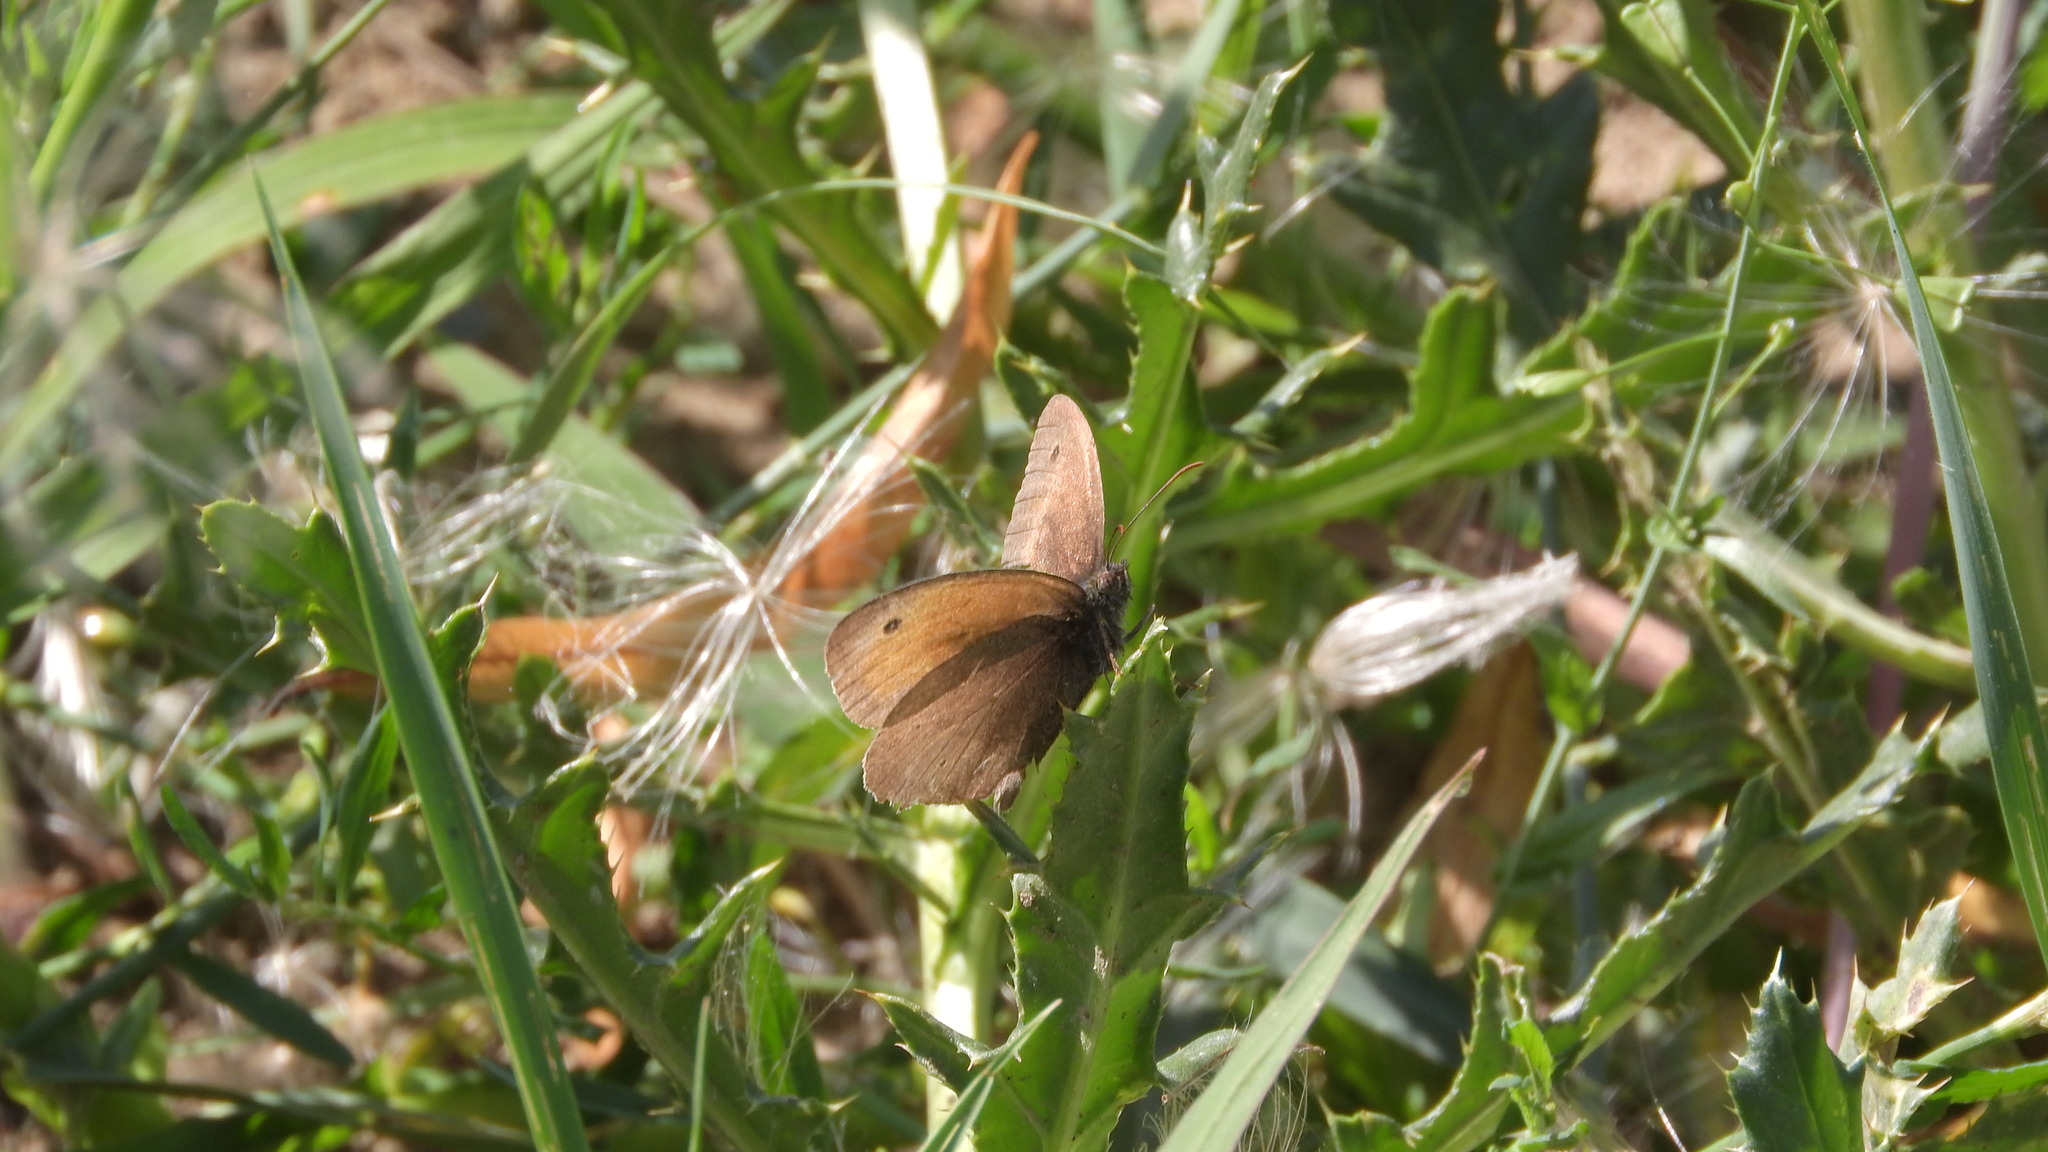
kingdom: Animalia
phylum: Arthropoda
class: Insecta
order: Lepidoptera
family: Nymphalidae
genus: Maniola
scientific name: Maniola jurtina
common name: Meadow brown
